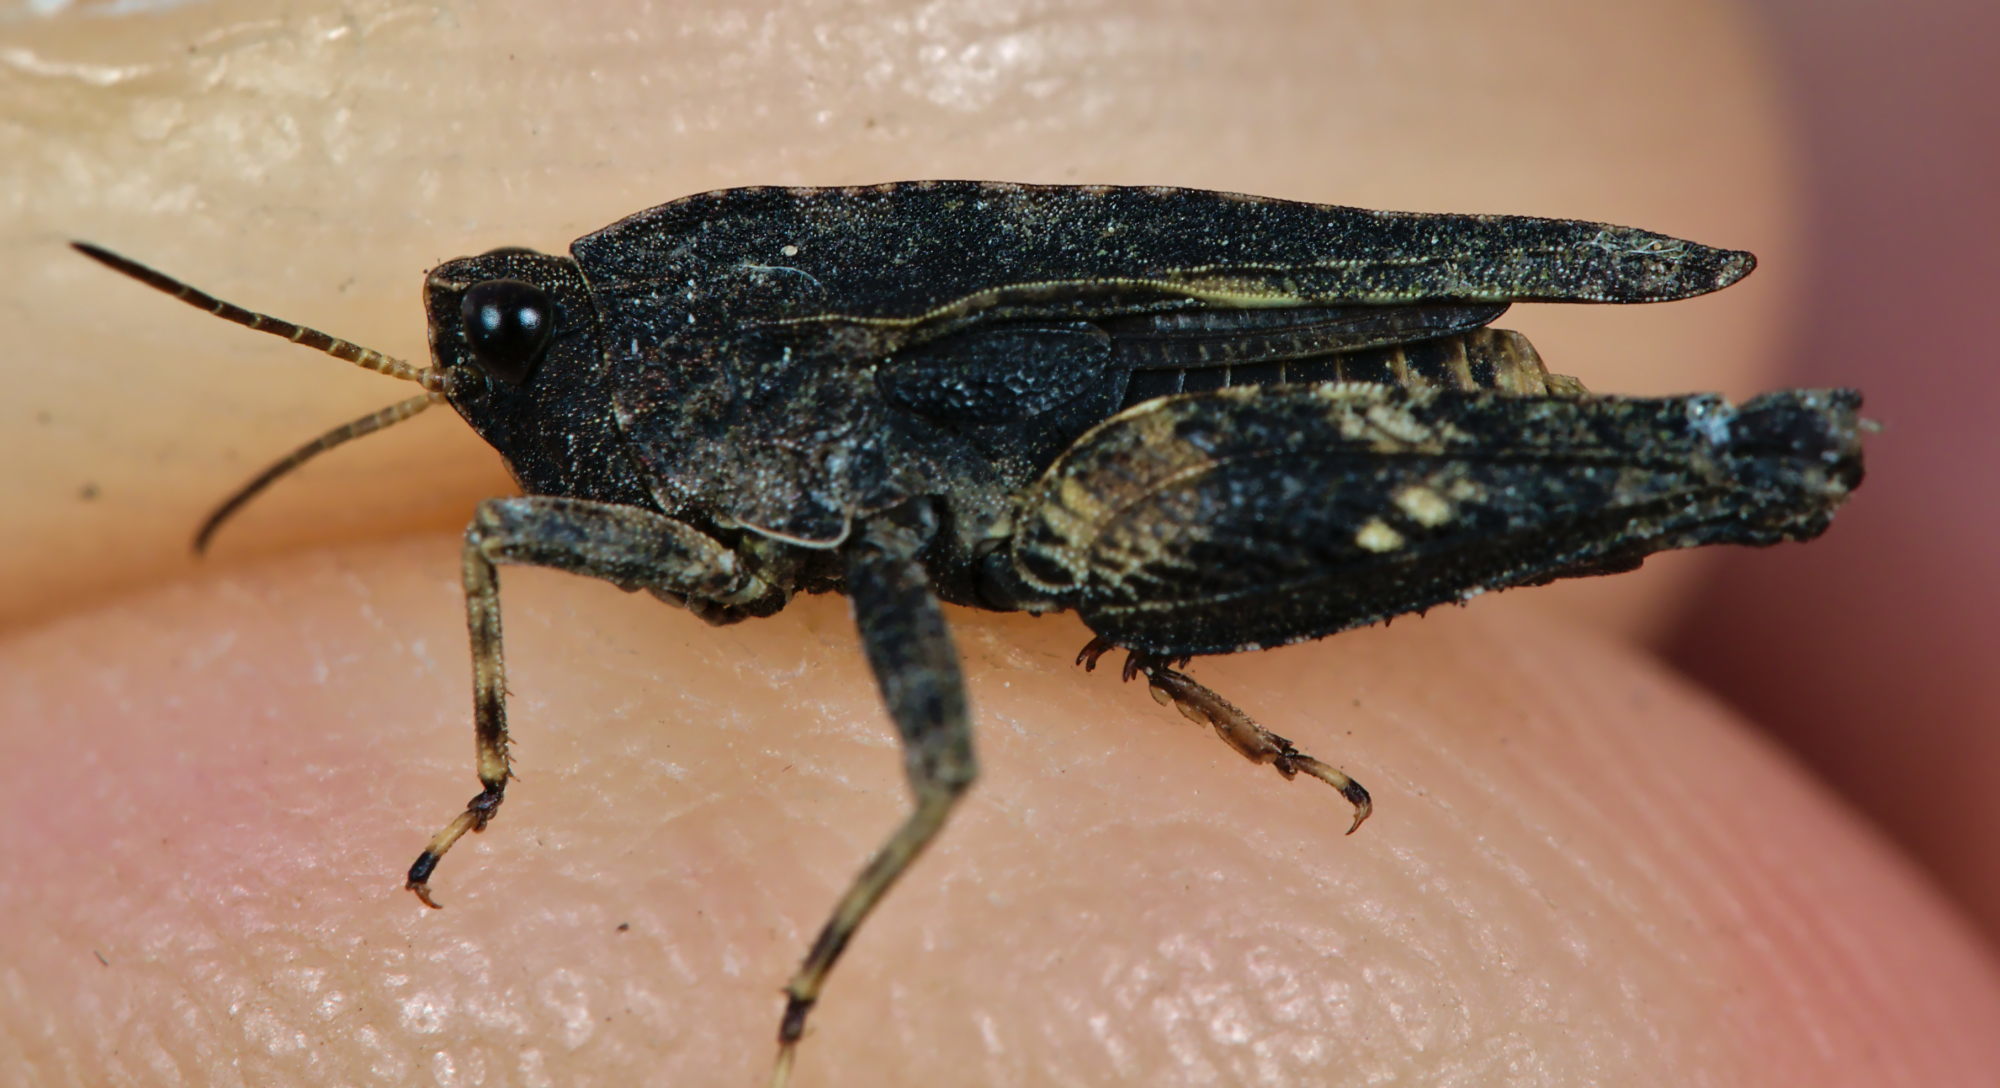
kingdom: Animalia
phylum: Arthropoda
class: Insecta
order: Orthoptera
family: Tetrigidae
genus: Tetrix
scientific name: Tetrix undulata
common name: Common groundhopper
